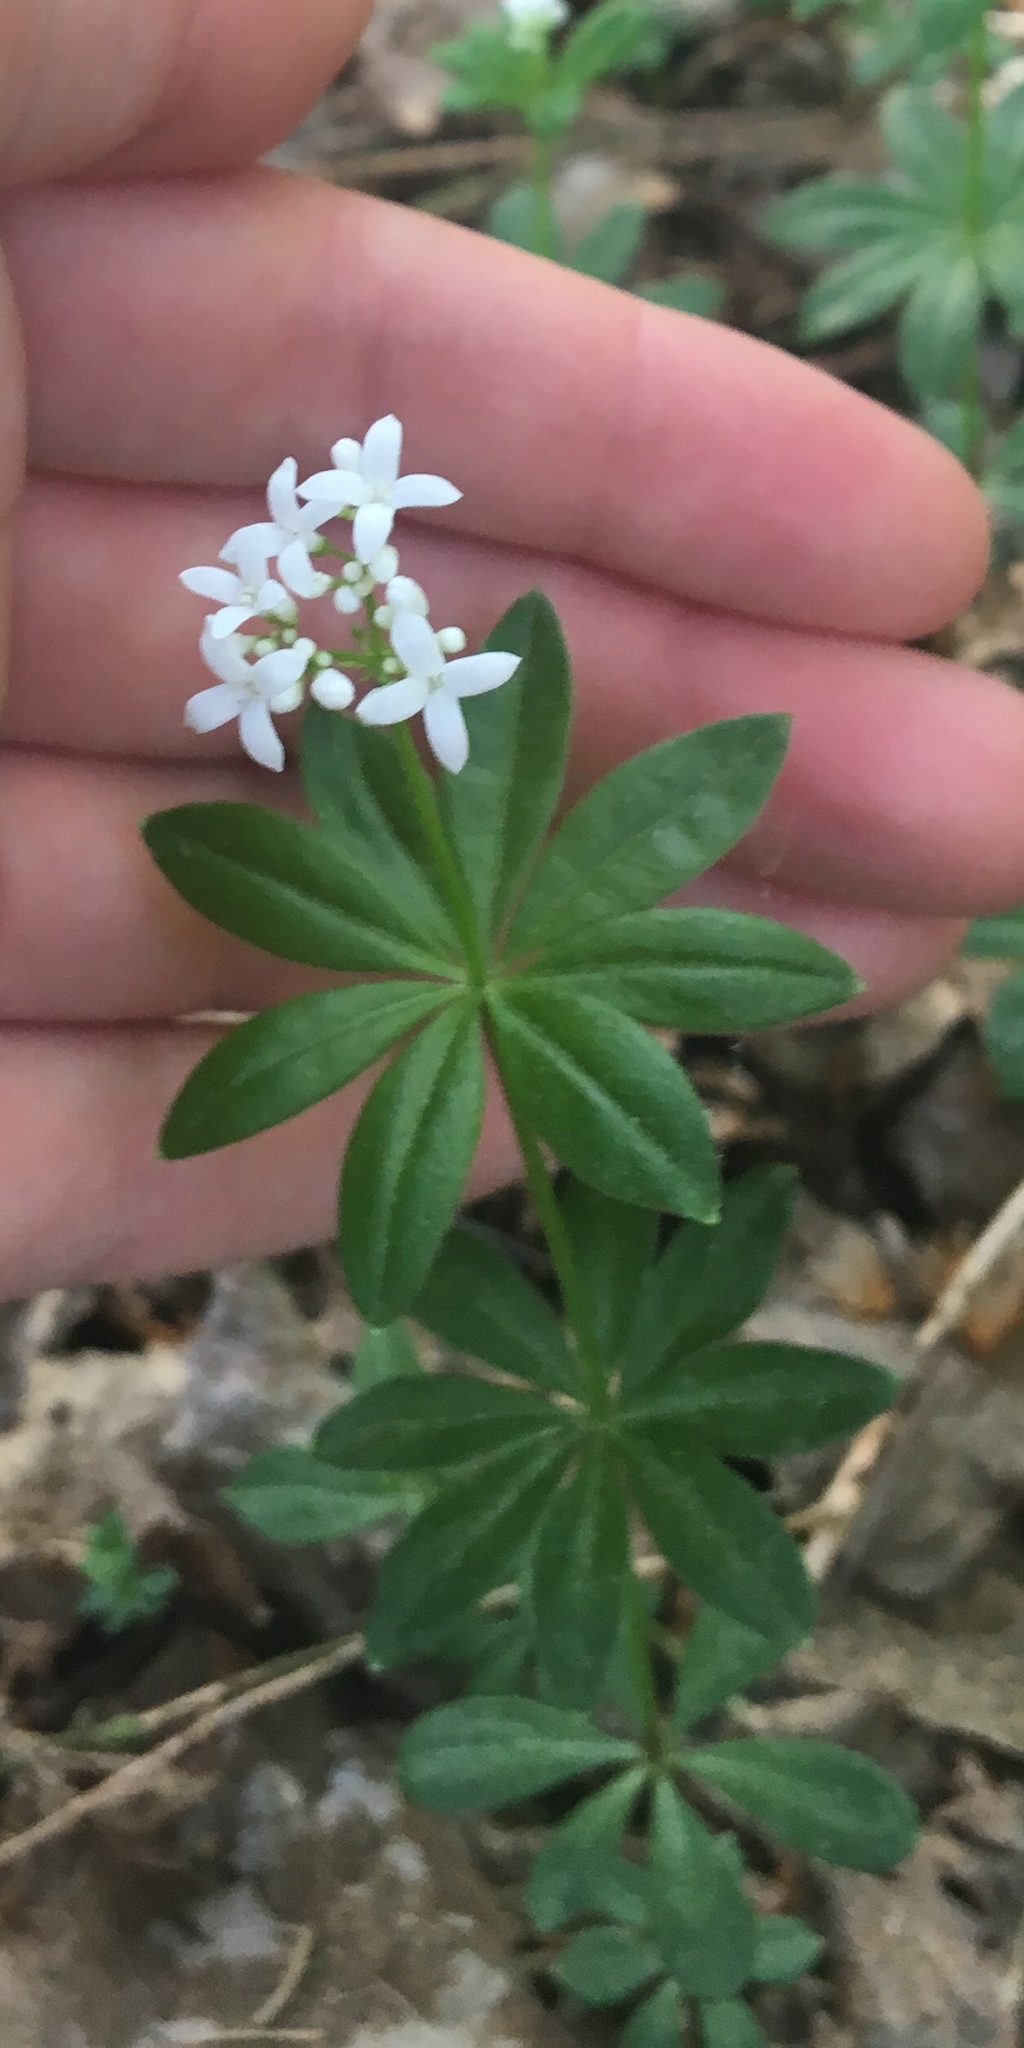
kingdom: Plantae
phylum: Tracheophyta
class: Magnoliopsida
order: Gentianales
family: Rubiaceae
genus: Galium
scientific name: Galium odoratum
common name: Sweet woodruff
